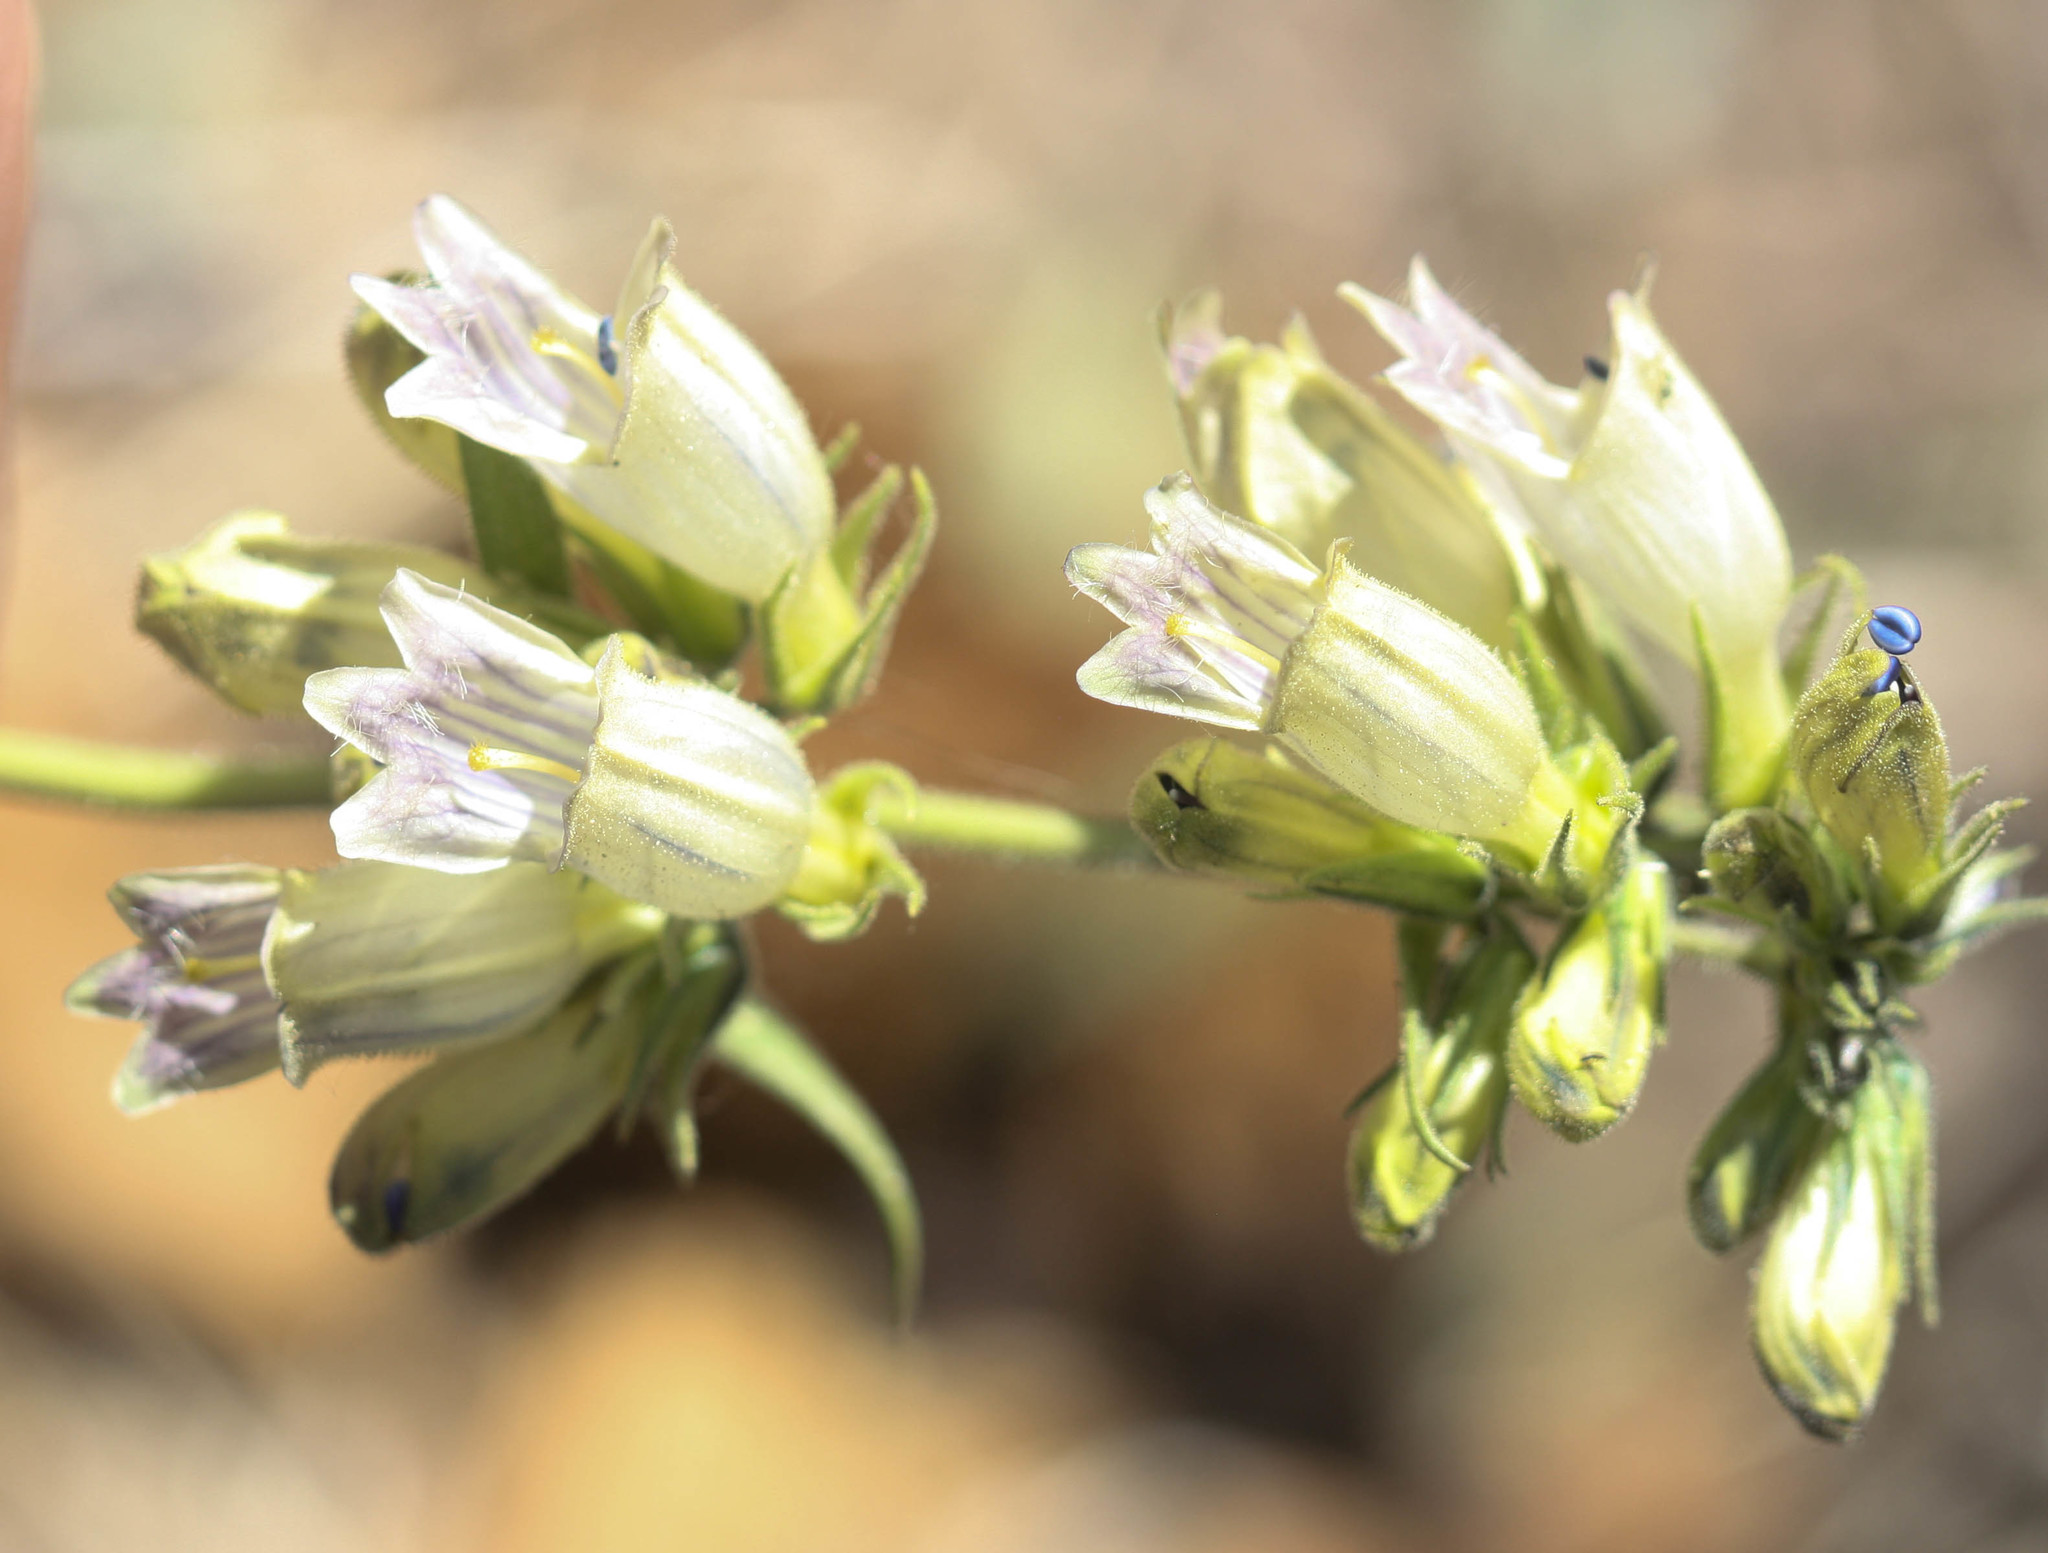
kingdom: Plantae
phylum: Tracheophyta
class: Magnoliopsida
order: Lamiales
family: Plantaginaceae
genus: Penstemon
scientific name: Penstemon whippleanus
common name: Whipple's penstemon
